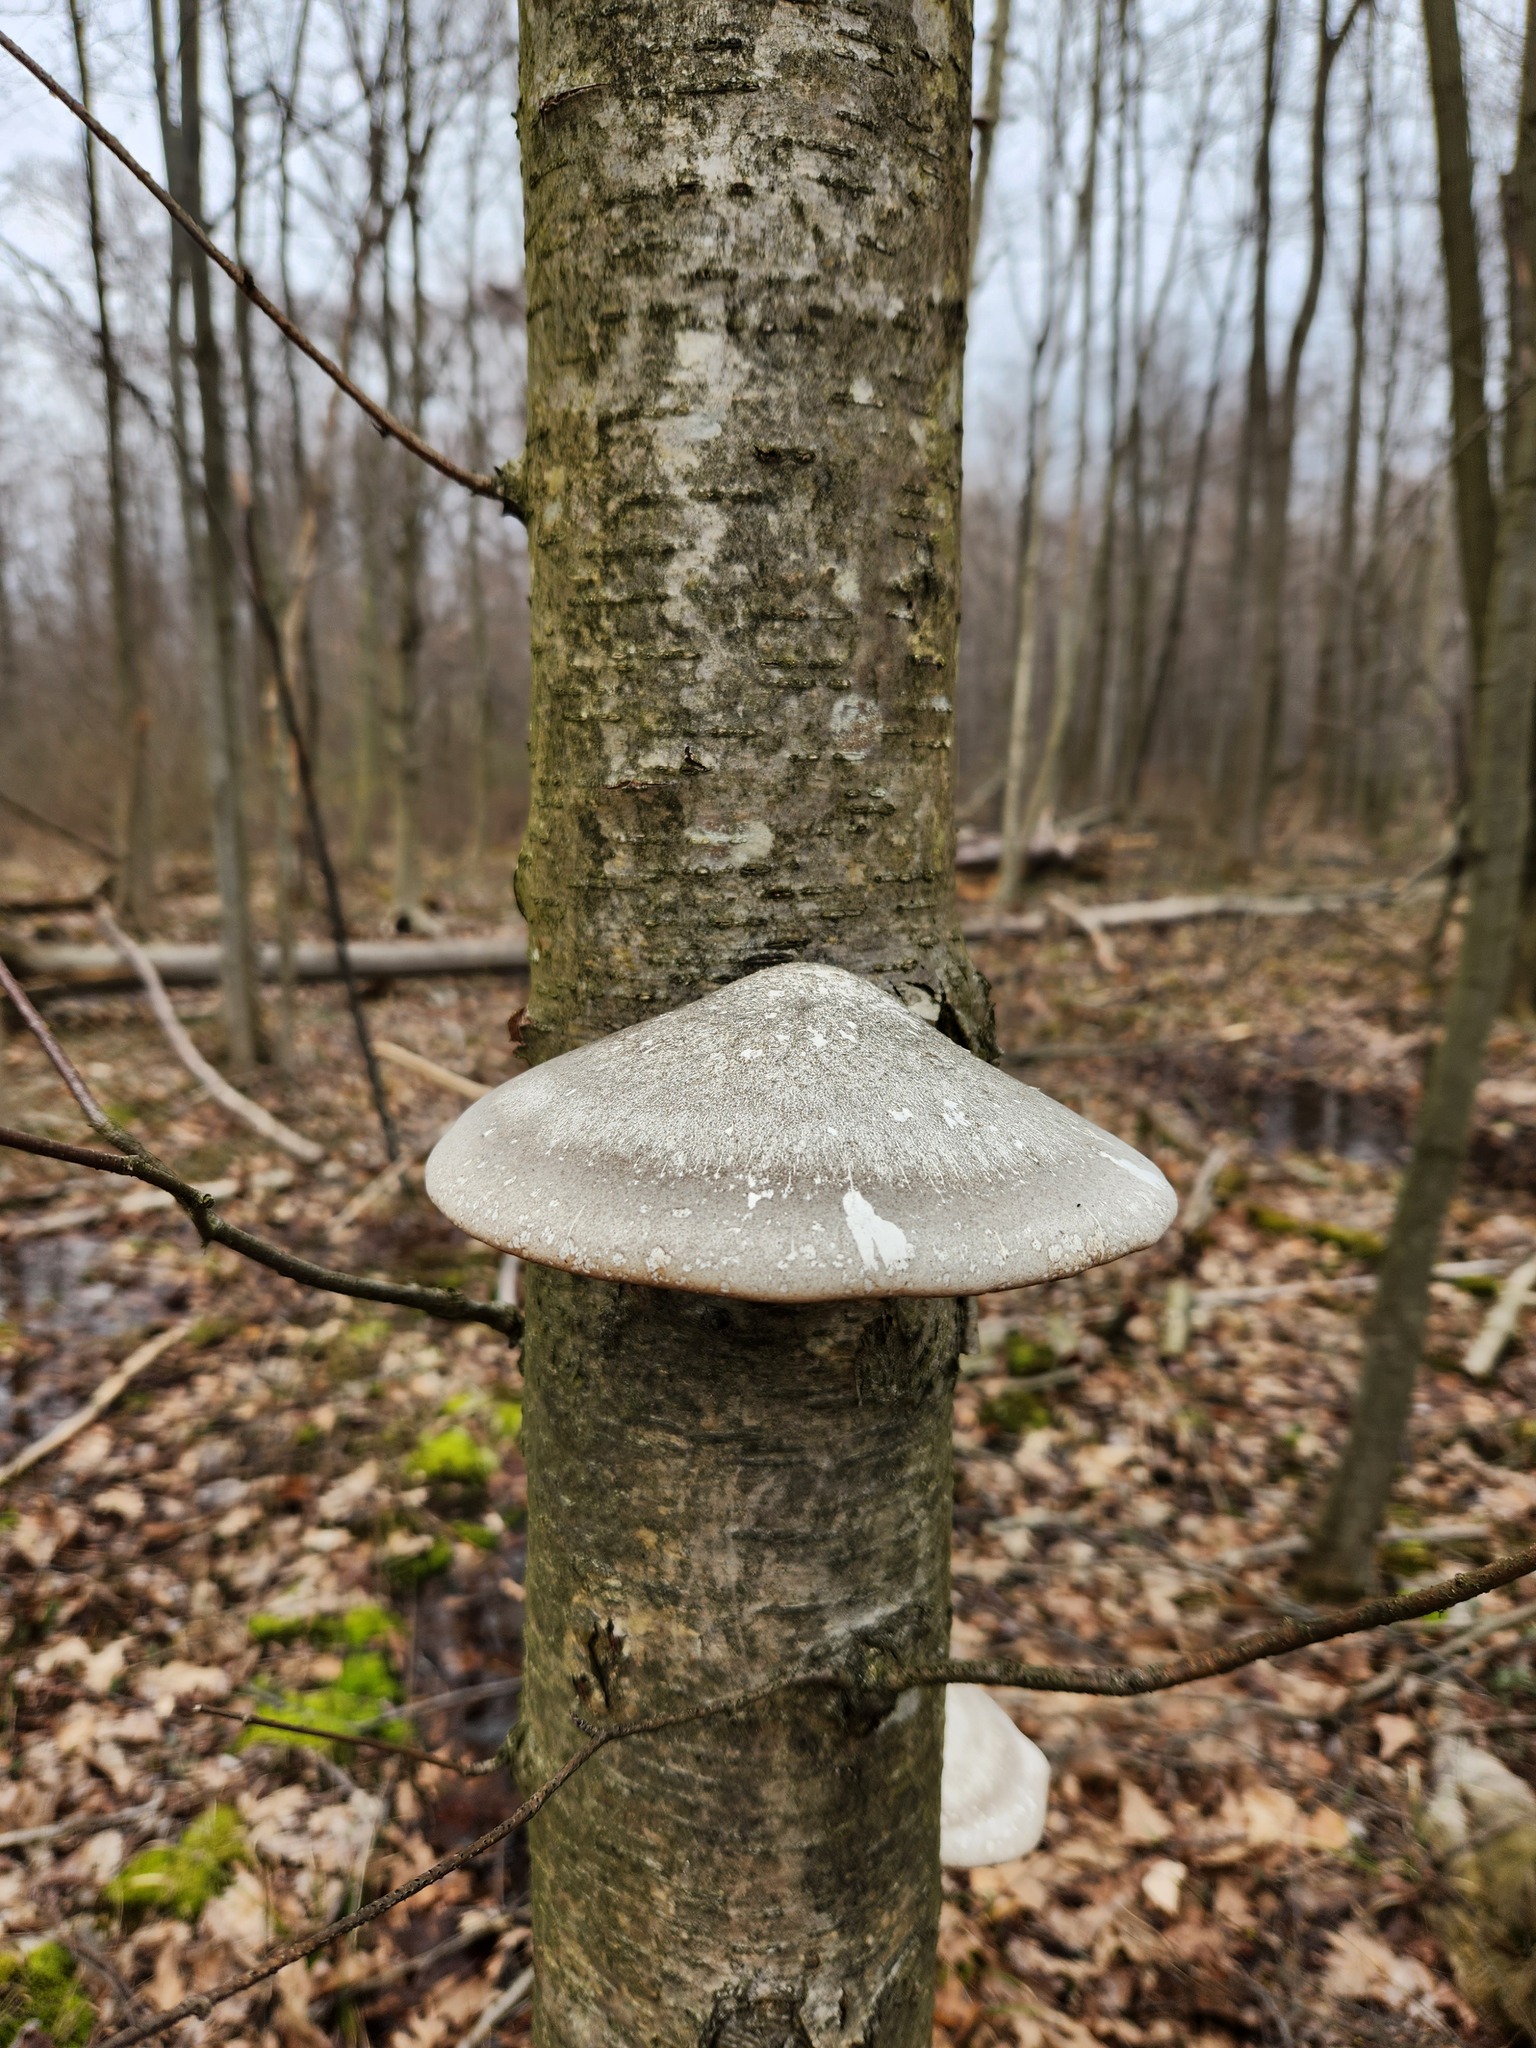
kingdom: Fungi
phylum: Basidiomycota
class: Agaricomycetes
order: Polyporales
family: Fomitopsidaceae
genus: Fomitopsis
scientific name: Fomitopsis betulina
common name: Birch polypore
